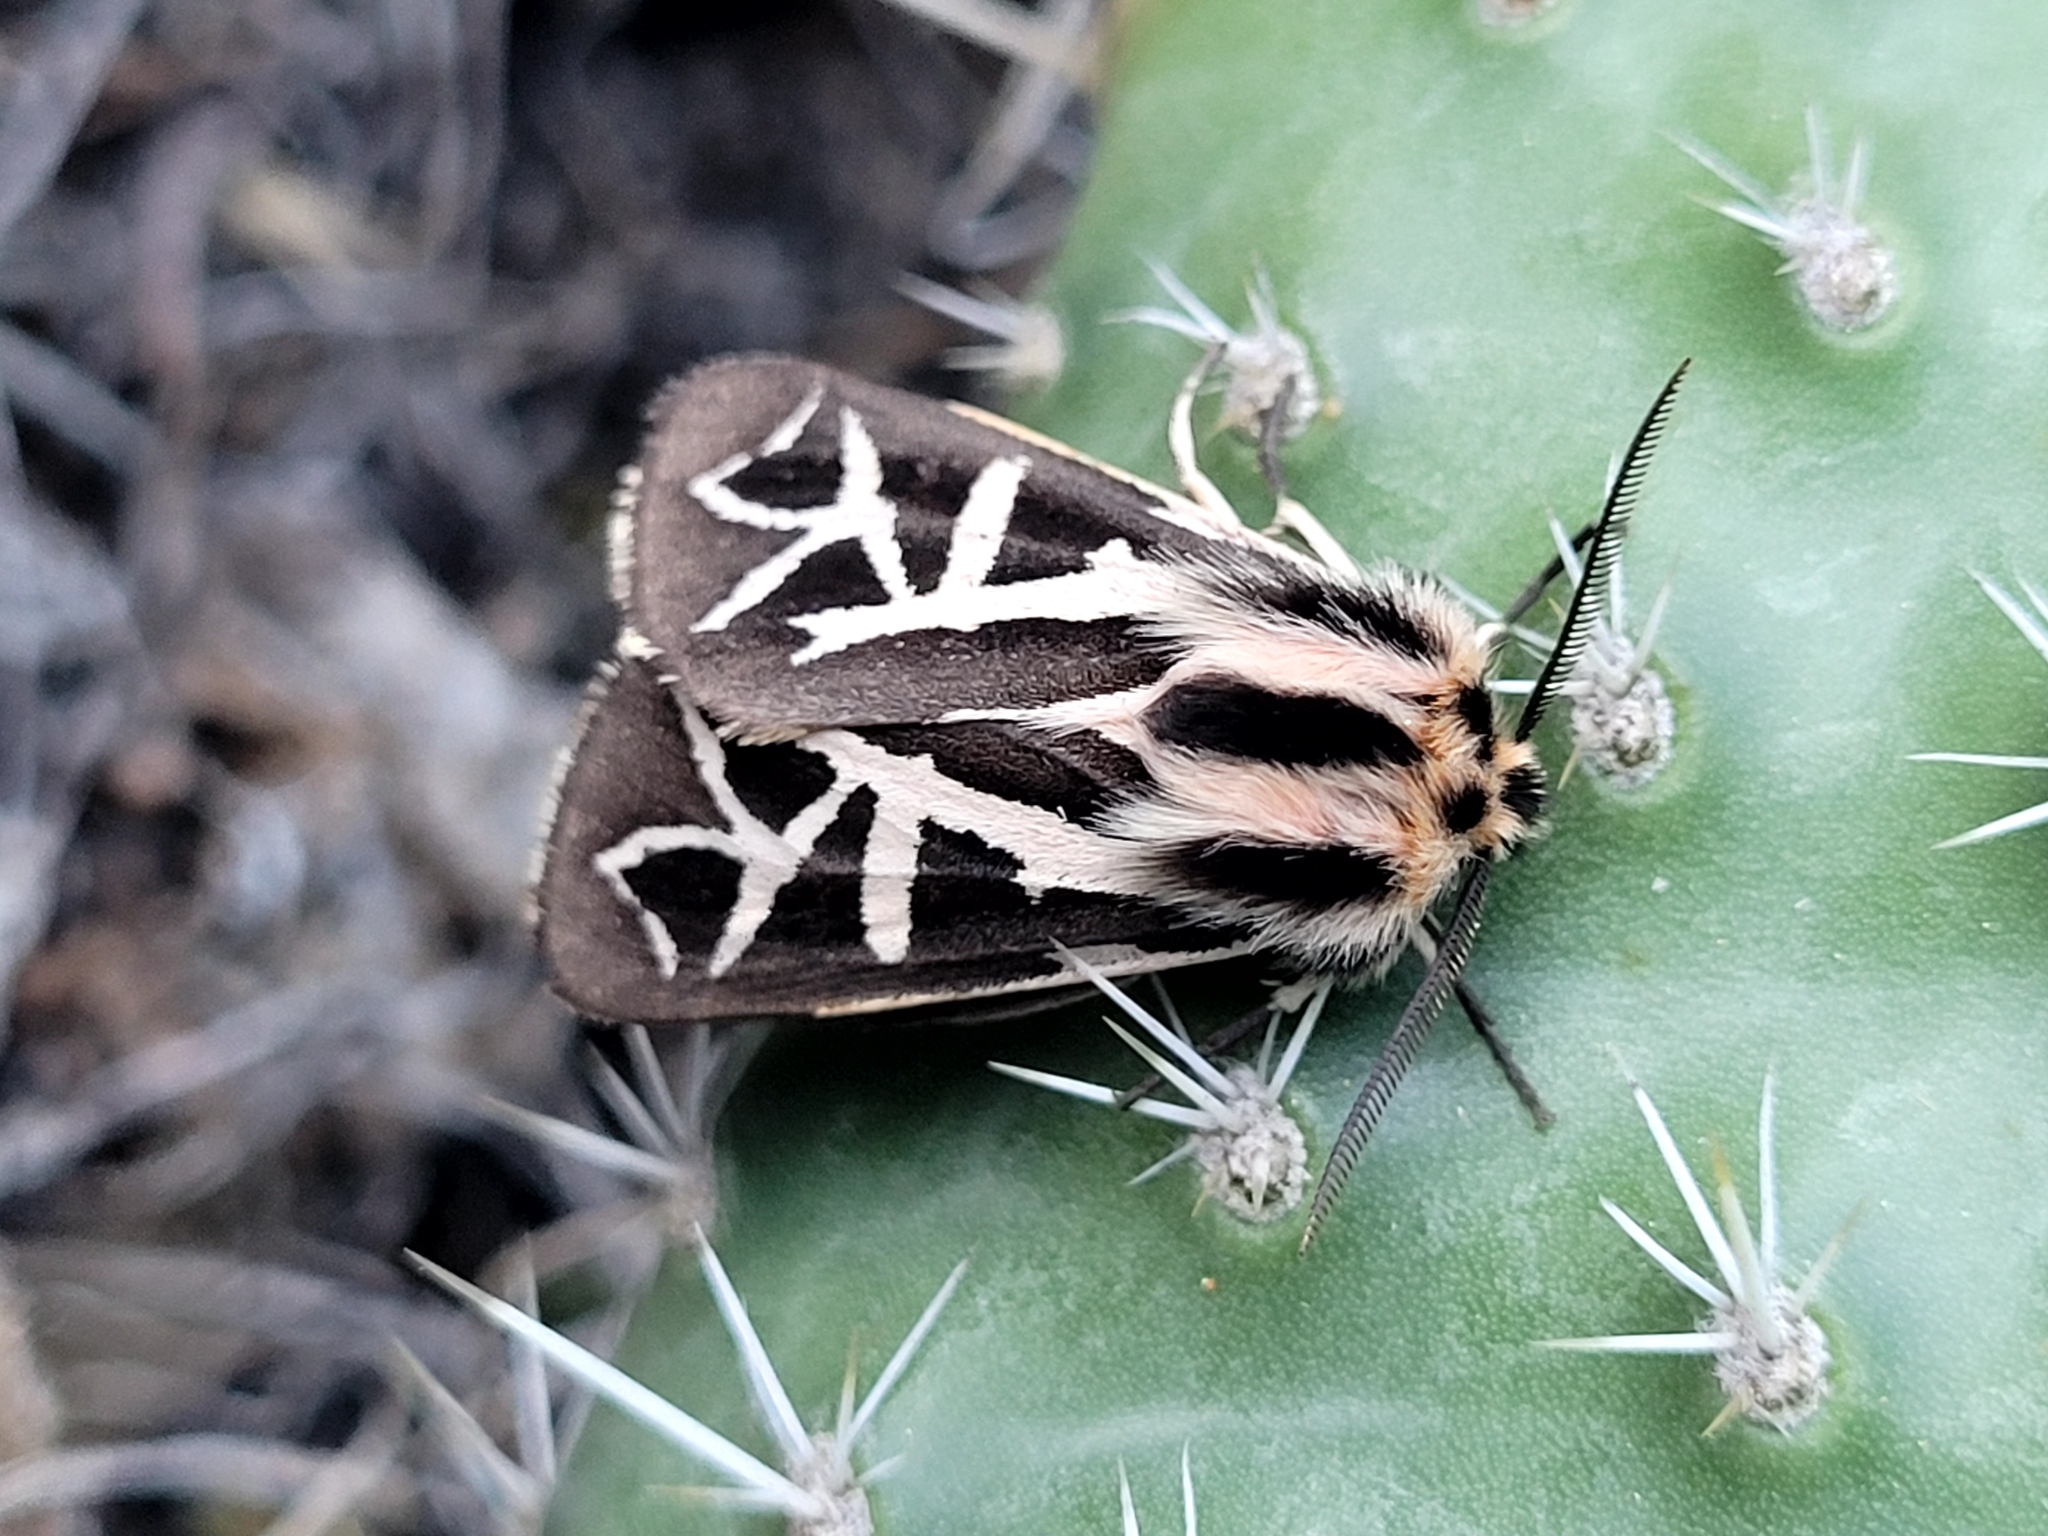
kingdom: Animalia
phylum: Arthropoda
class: Insecta
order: Lepidoptera
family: Erebidae
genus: Apantesis
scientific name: Apantesis
